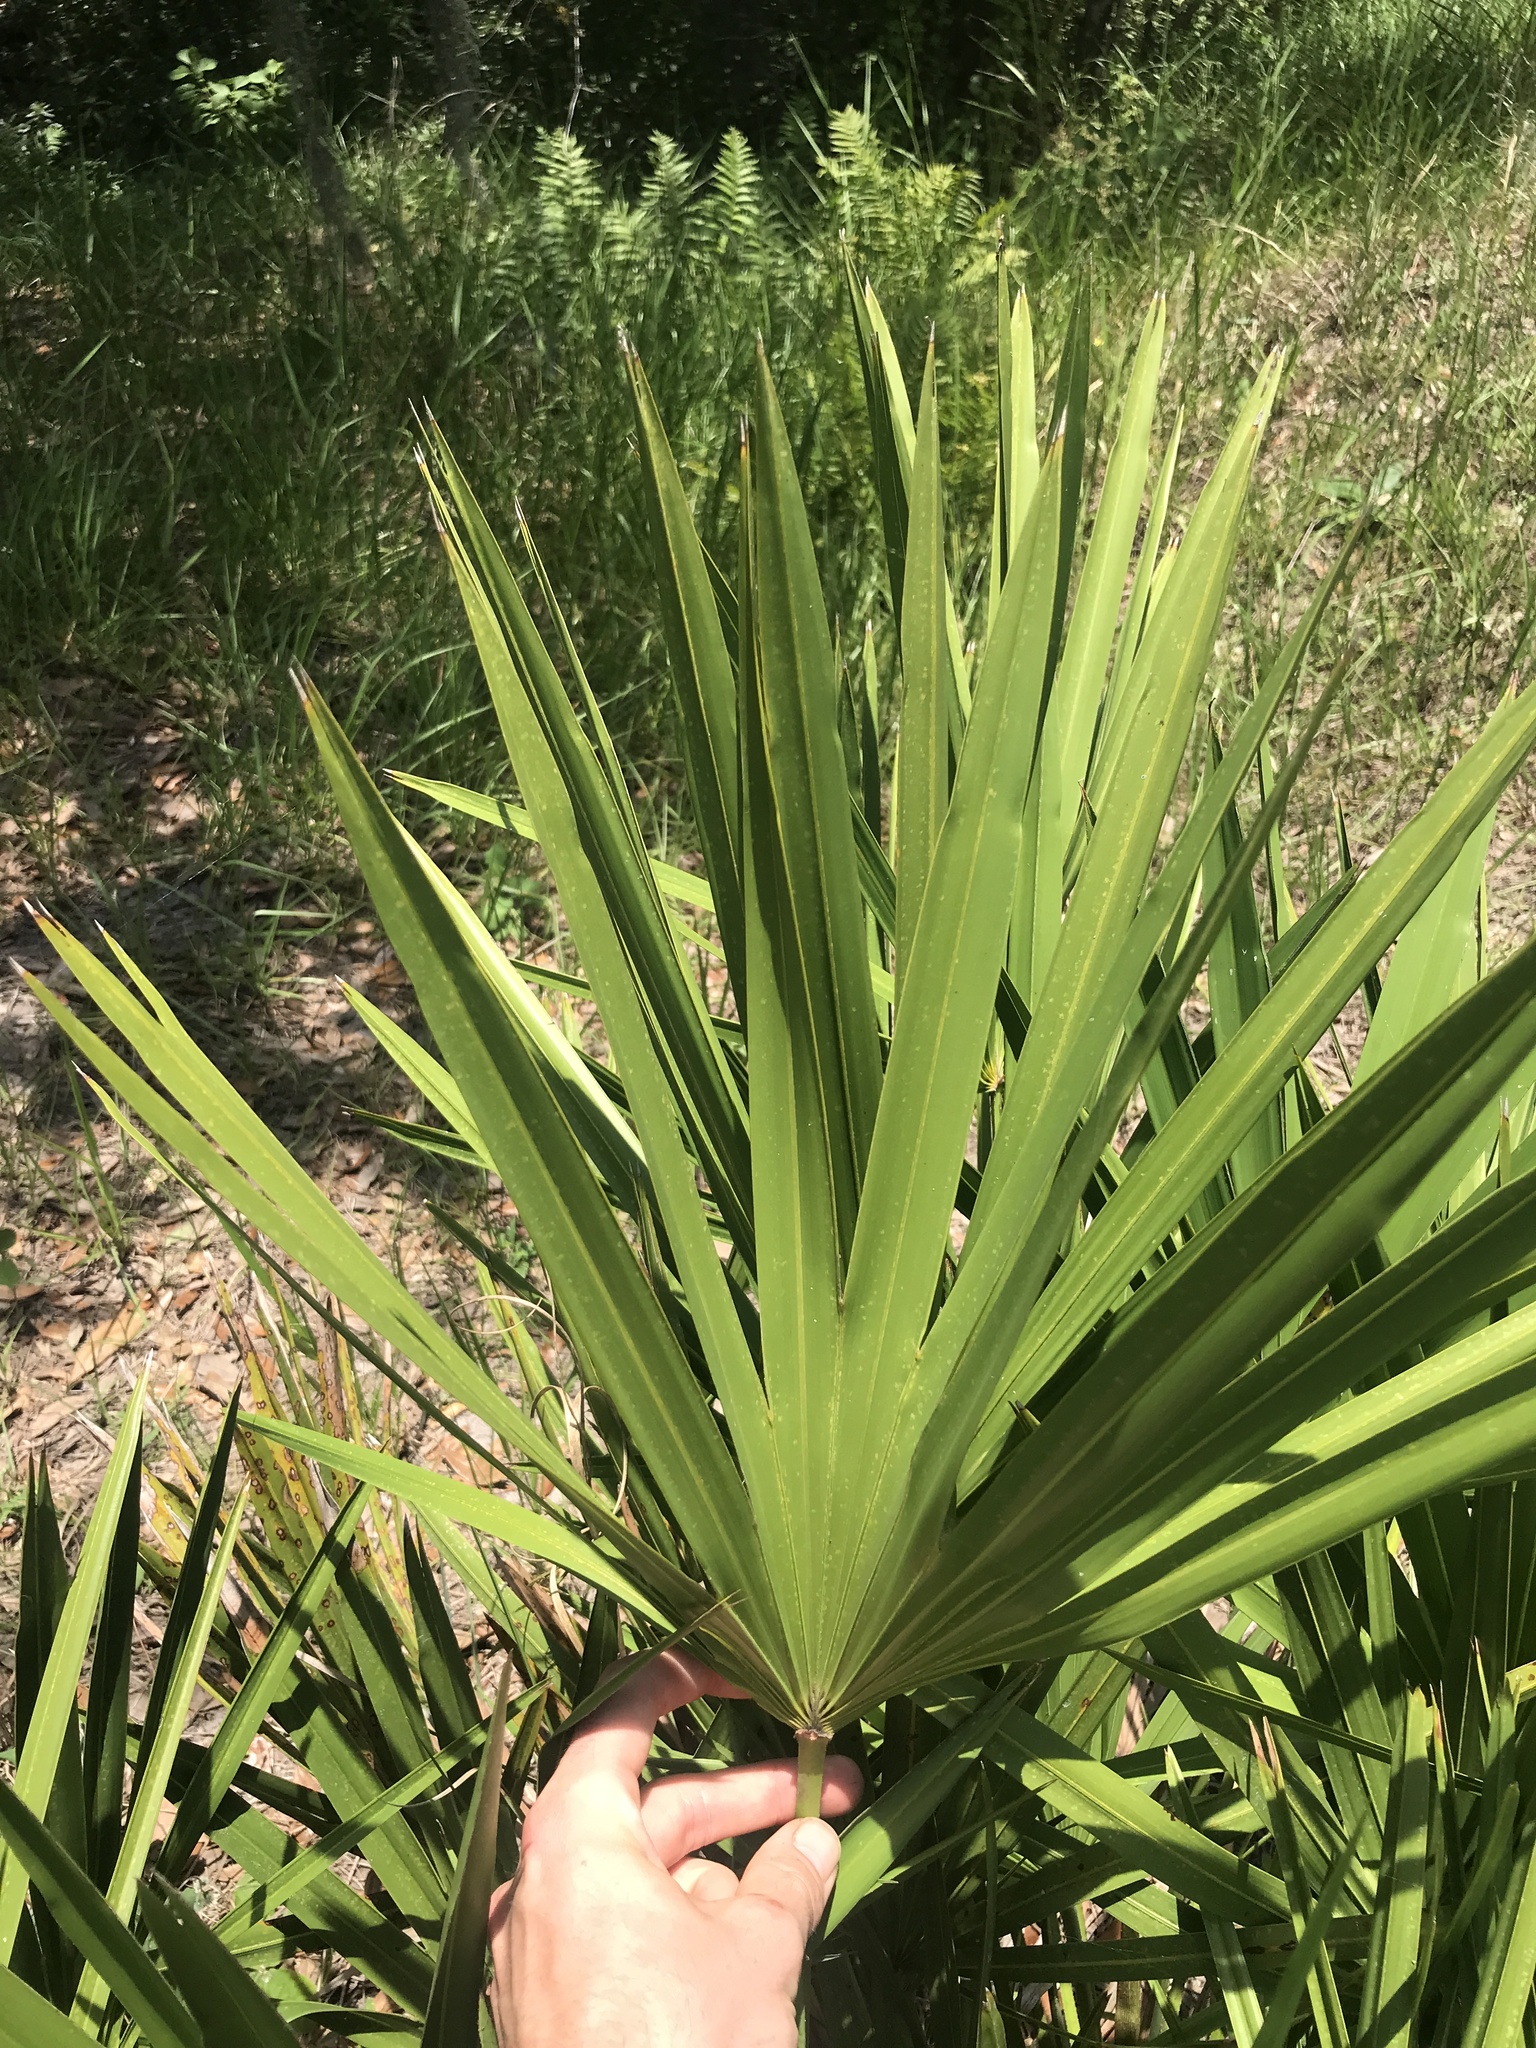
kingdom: Plantae
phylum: Tracheophyta
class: Liliopsida
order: Arecales
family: Arecaceae
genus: Serenoa
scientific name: Serenoa repens
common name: Saw-palmetto
